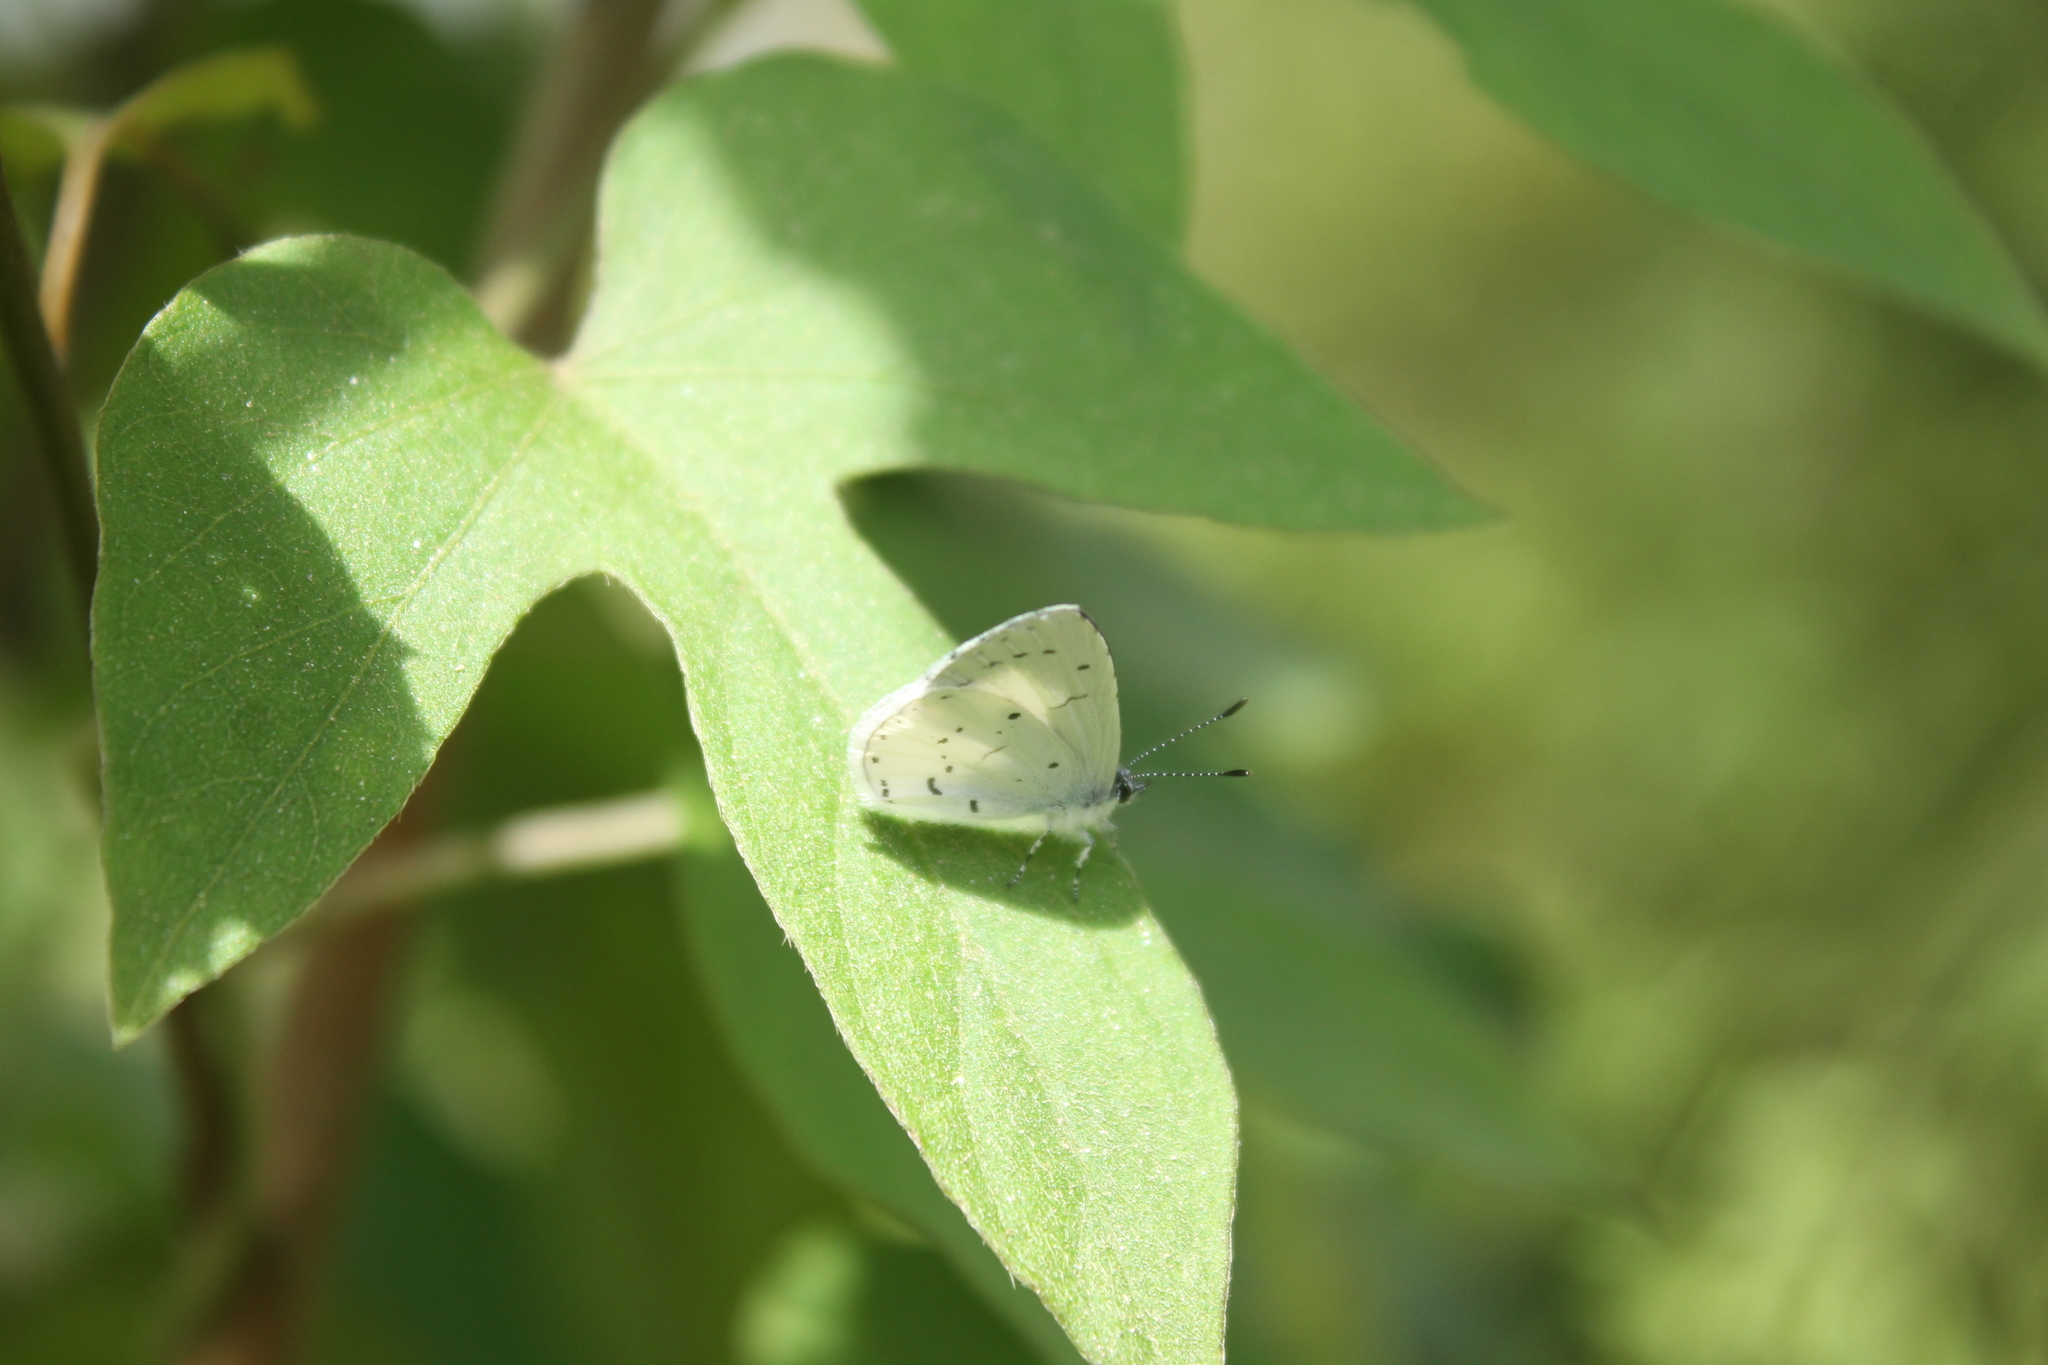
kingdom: Animalia
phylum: Arthropoda
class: Insecta
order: Lepidoptera
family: Lycaenidae
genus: Udara
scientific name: Udara akasa
